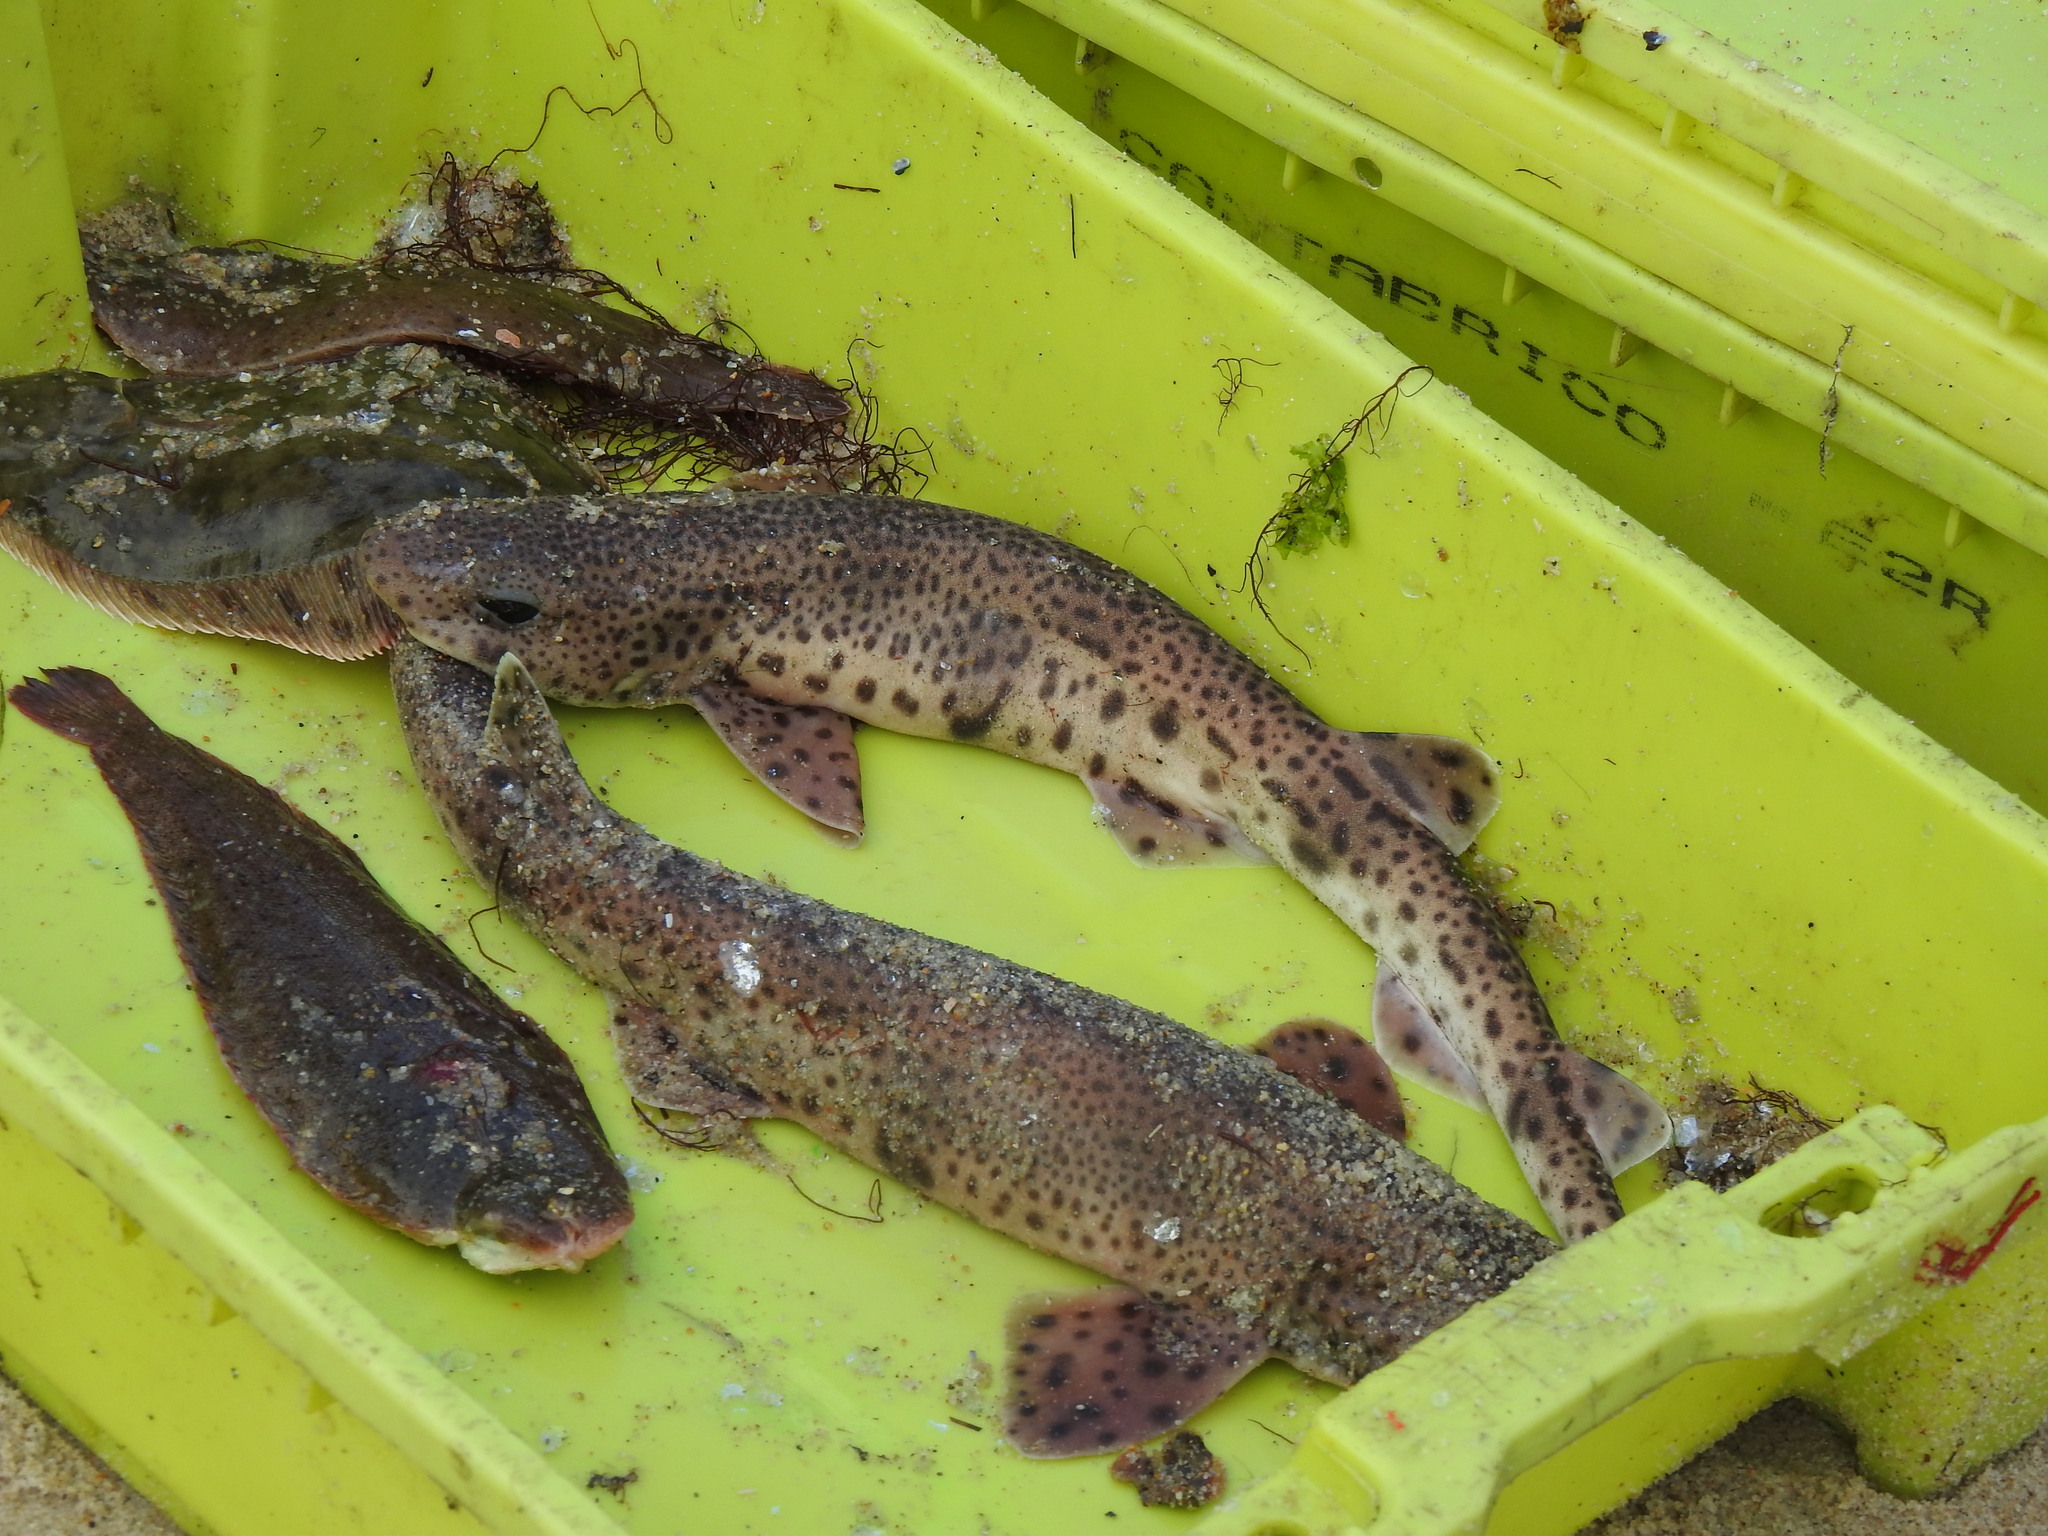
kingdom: Animalia
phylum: Chordata
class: Elasmobranchii
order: Carcharhiniformes
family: Scyliorhinidae
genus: Scyliorhinus
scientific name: Scyliorhinus canicula
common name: Lesser spotted dogfish
